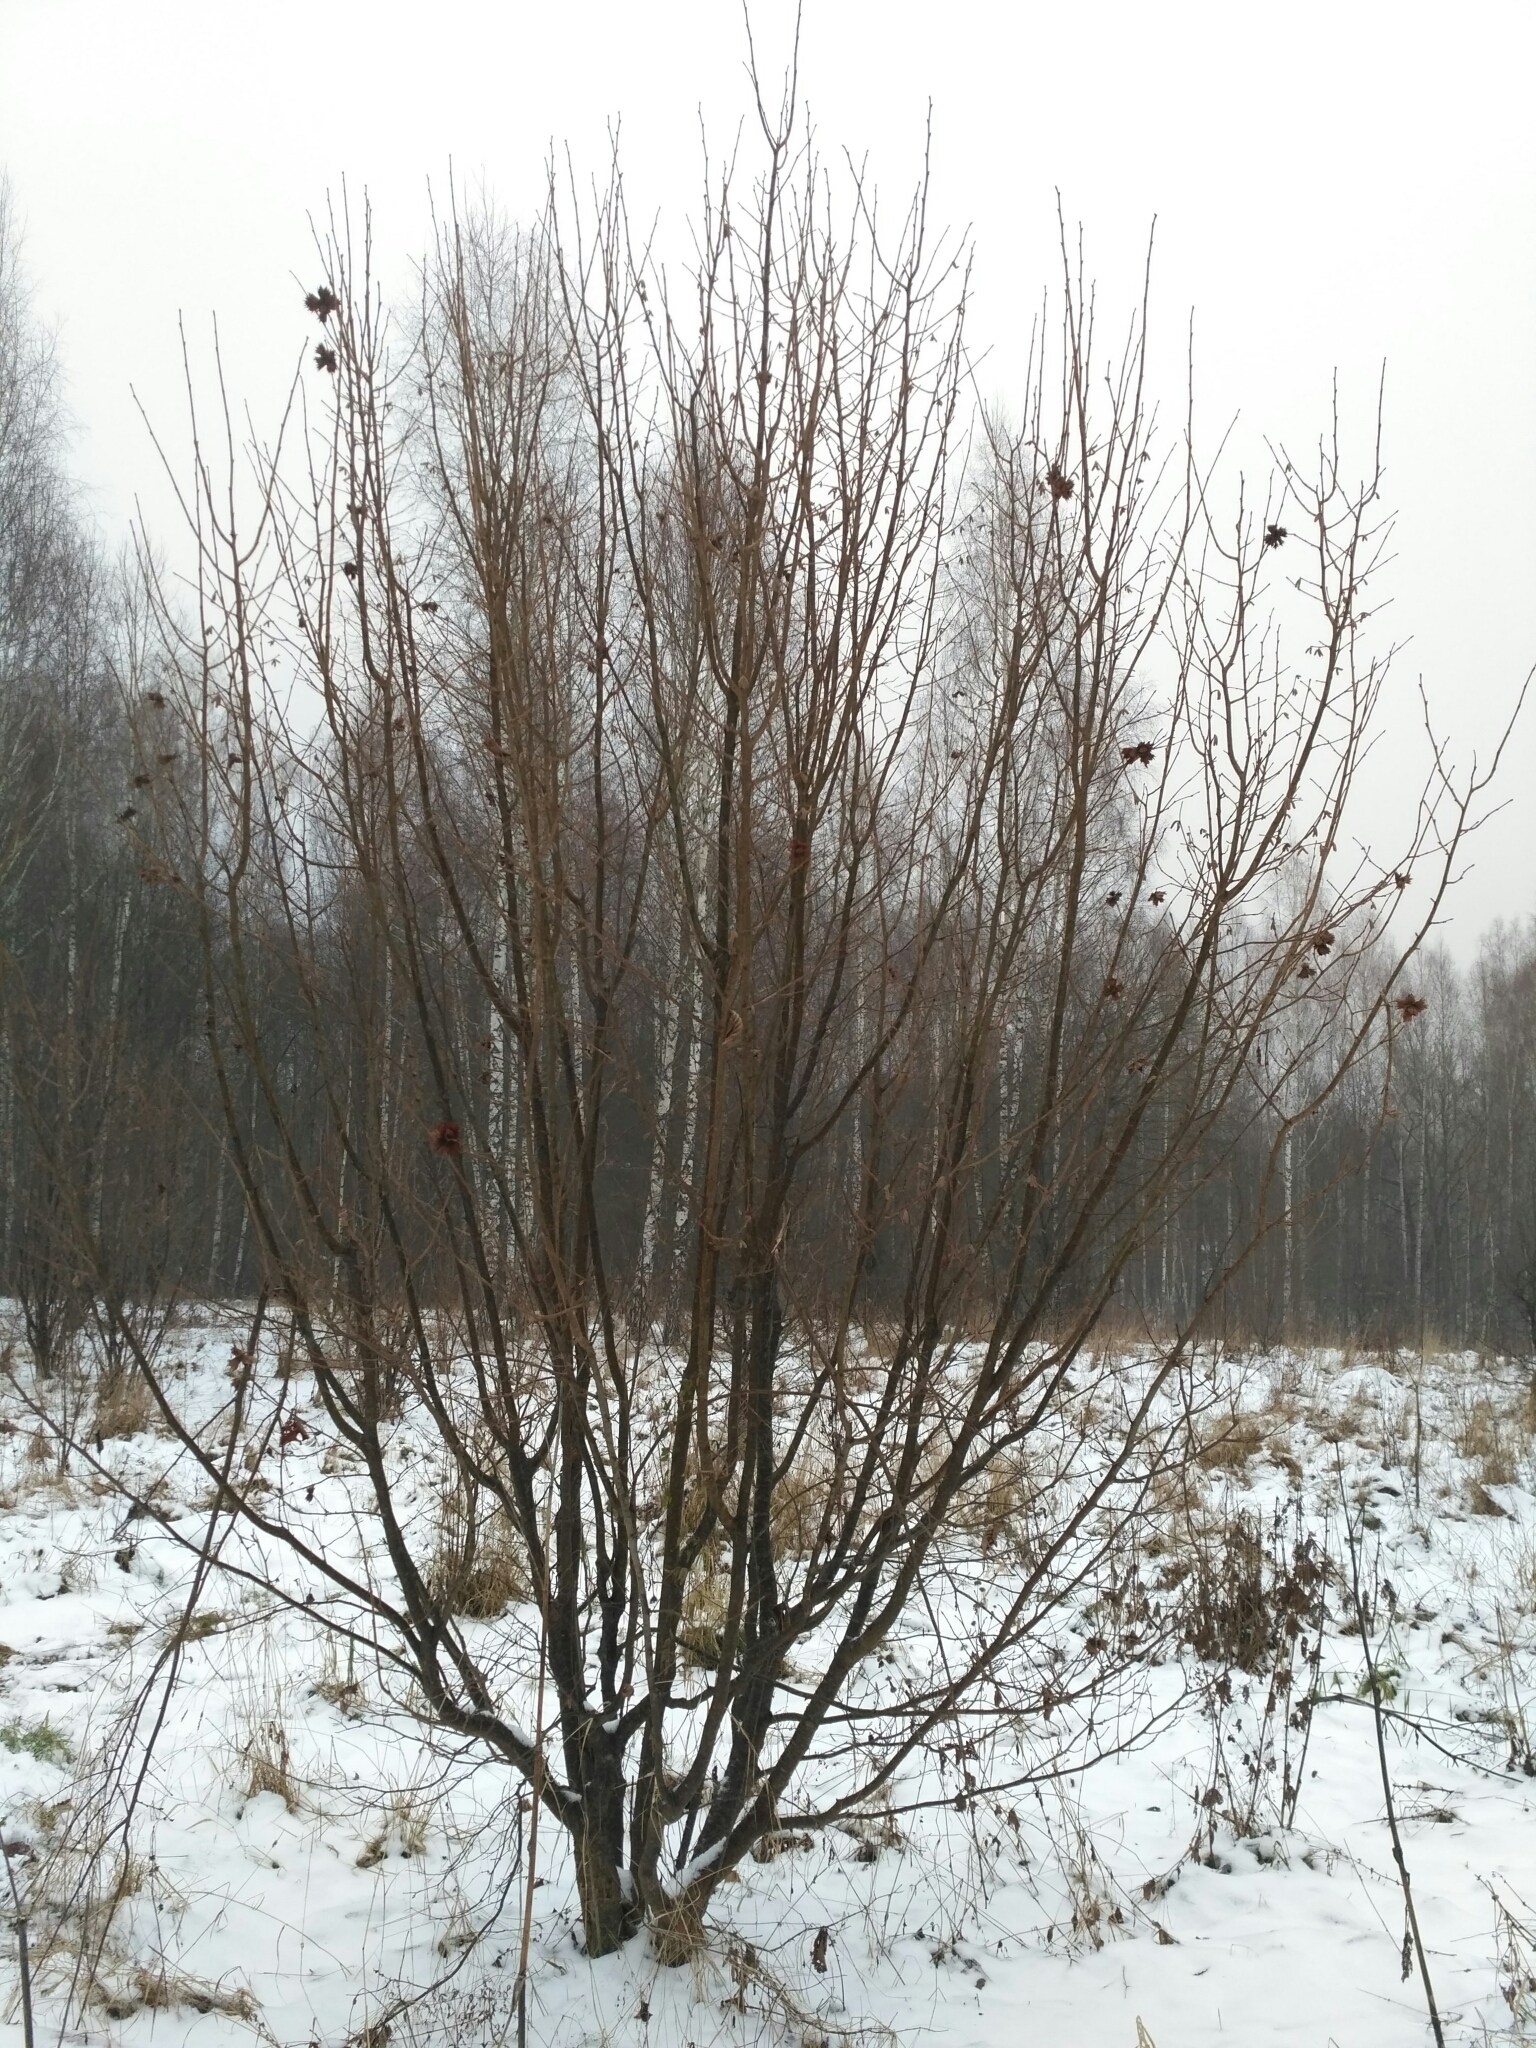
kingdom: Plantae
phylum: Tracheophyta
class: Magnoliopsida
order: Fagales
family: Betulaceae
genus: Corylus
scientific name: Corylus avellana
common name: European hazel
